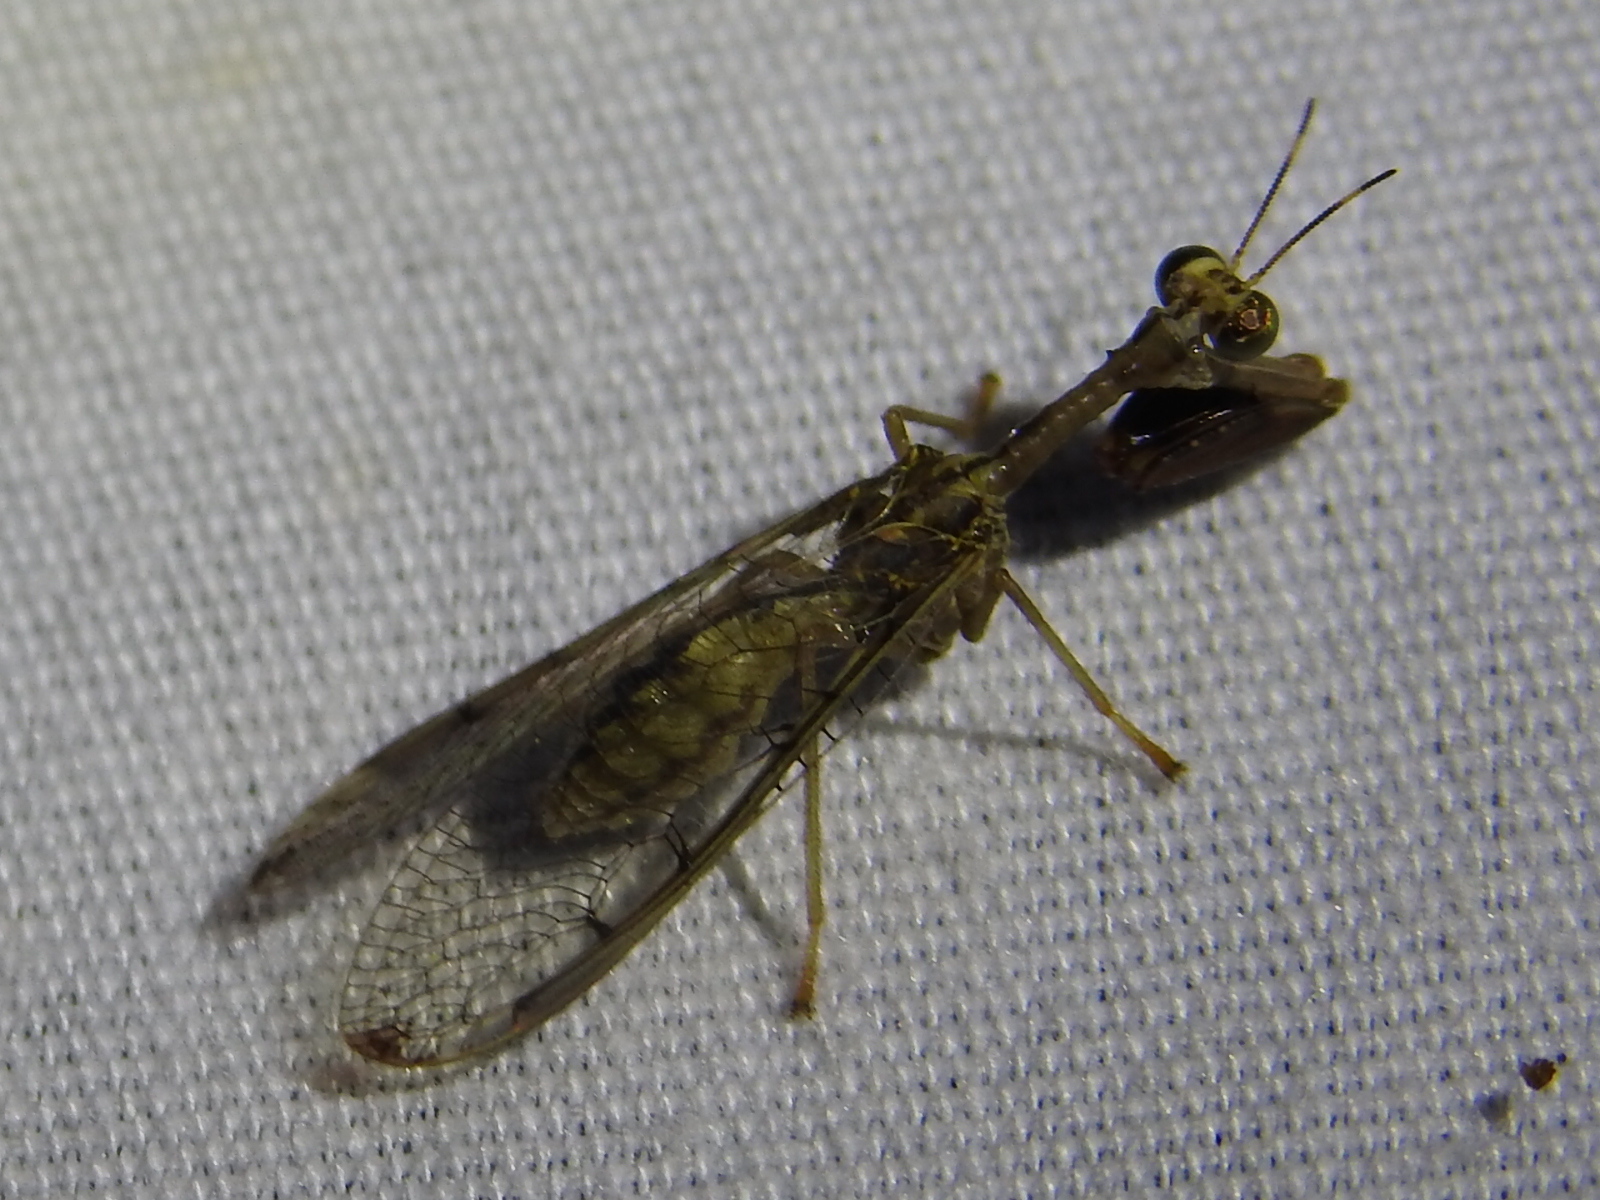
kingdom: Animalia
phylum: Arthropoda
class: Insecta
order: Neuroptera
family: Mantispidae
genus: Dicromantispa
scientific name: Dicromantispa interrupta
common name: Four-spotted mantidfly
